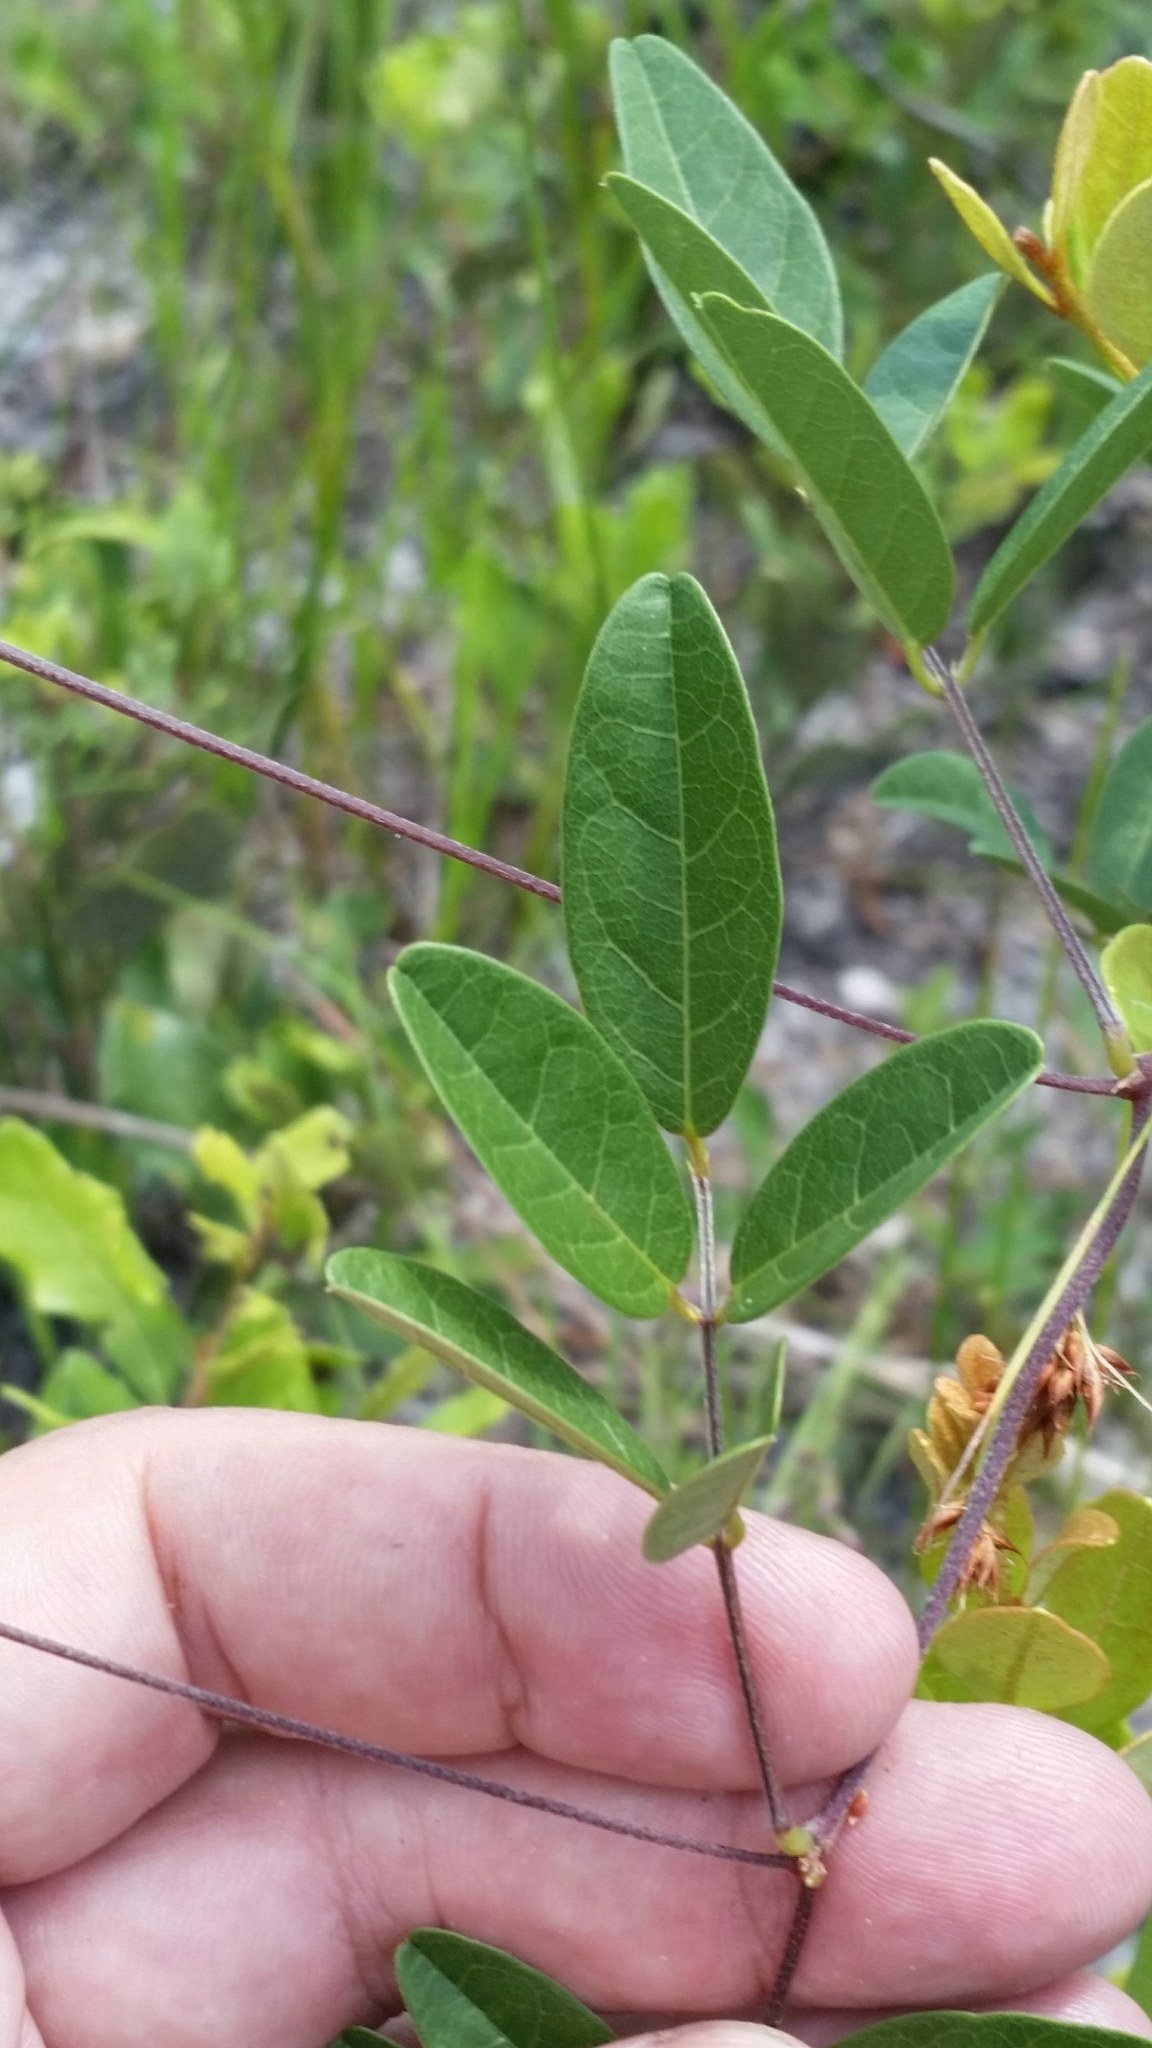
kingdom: Plantae
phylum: Tracheophyta
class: Magnoliopsida
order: Fabales
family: Fabaceae
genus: Galactia
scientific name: Galactia elliottii
